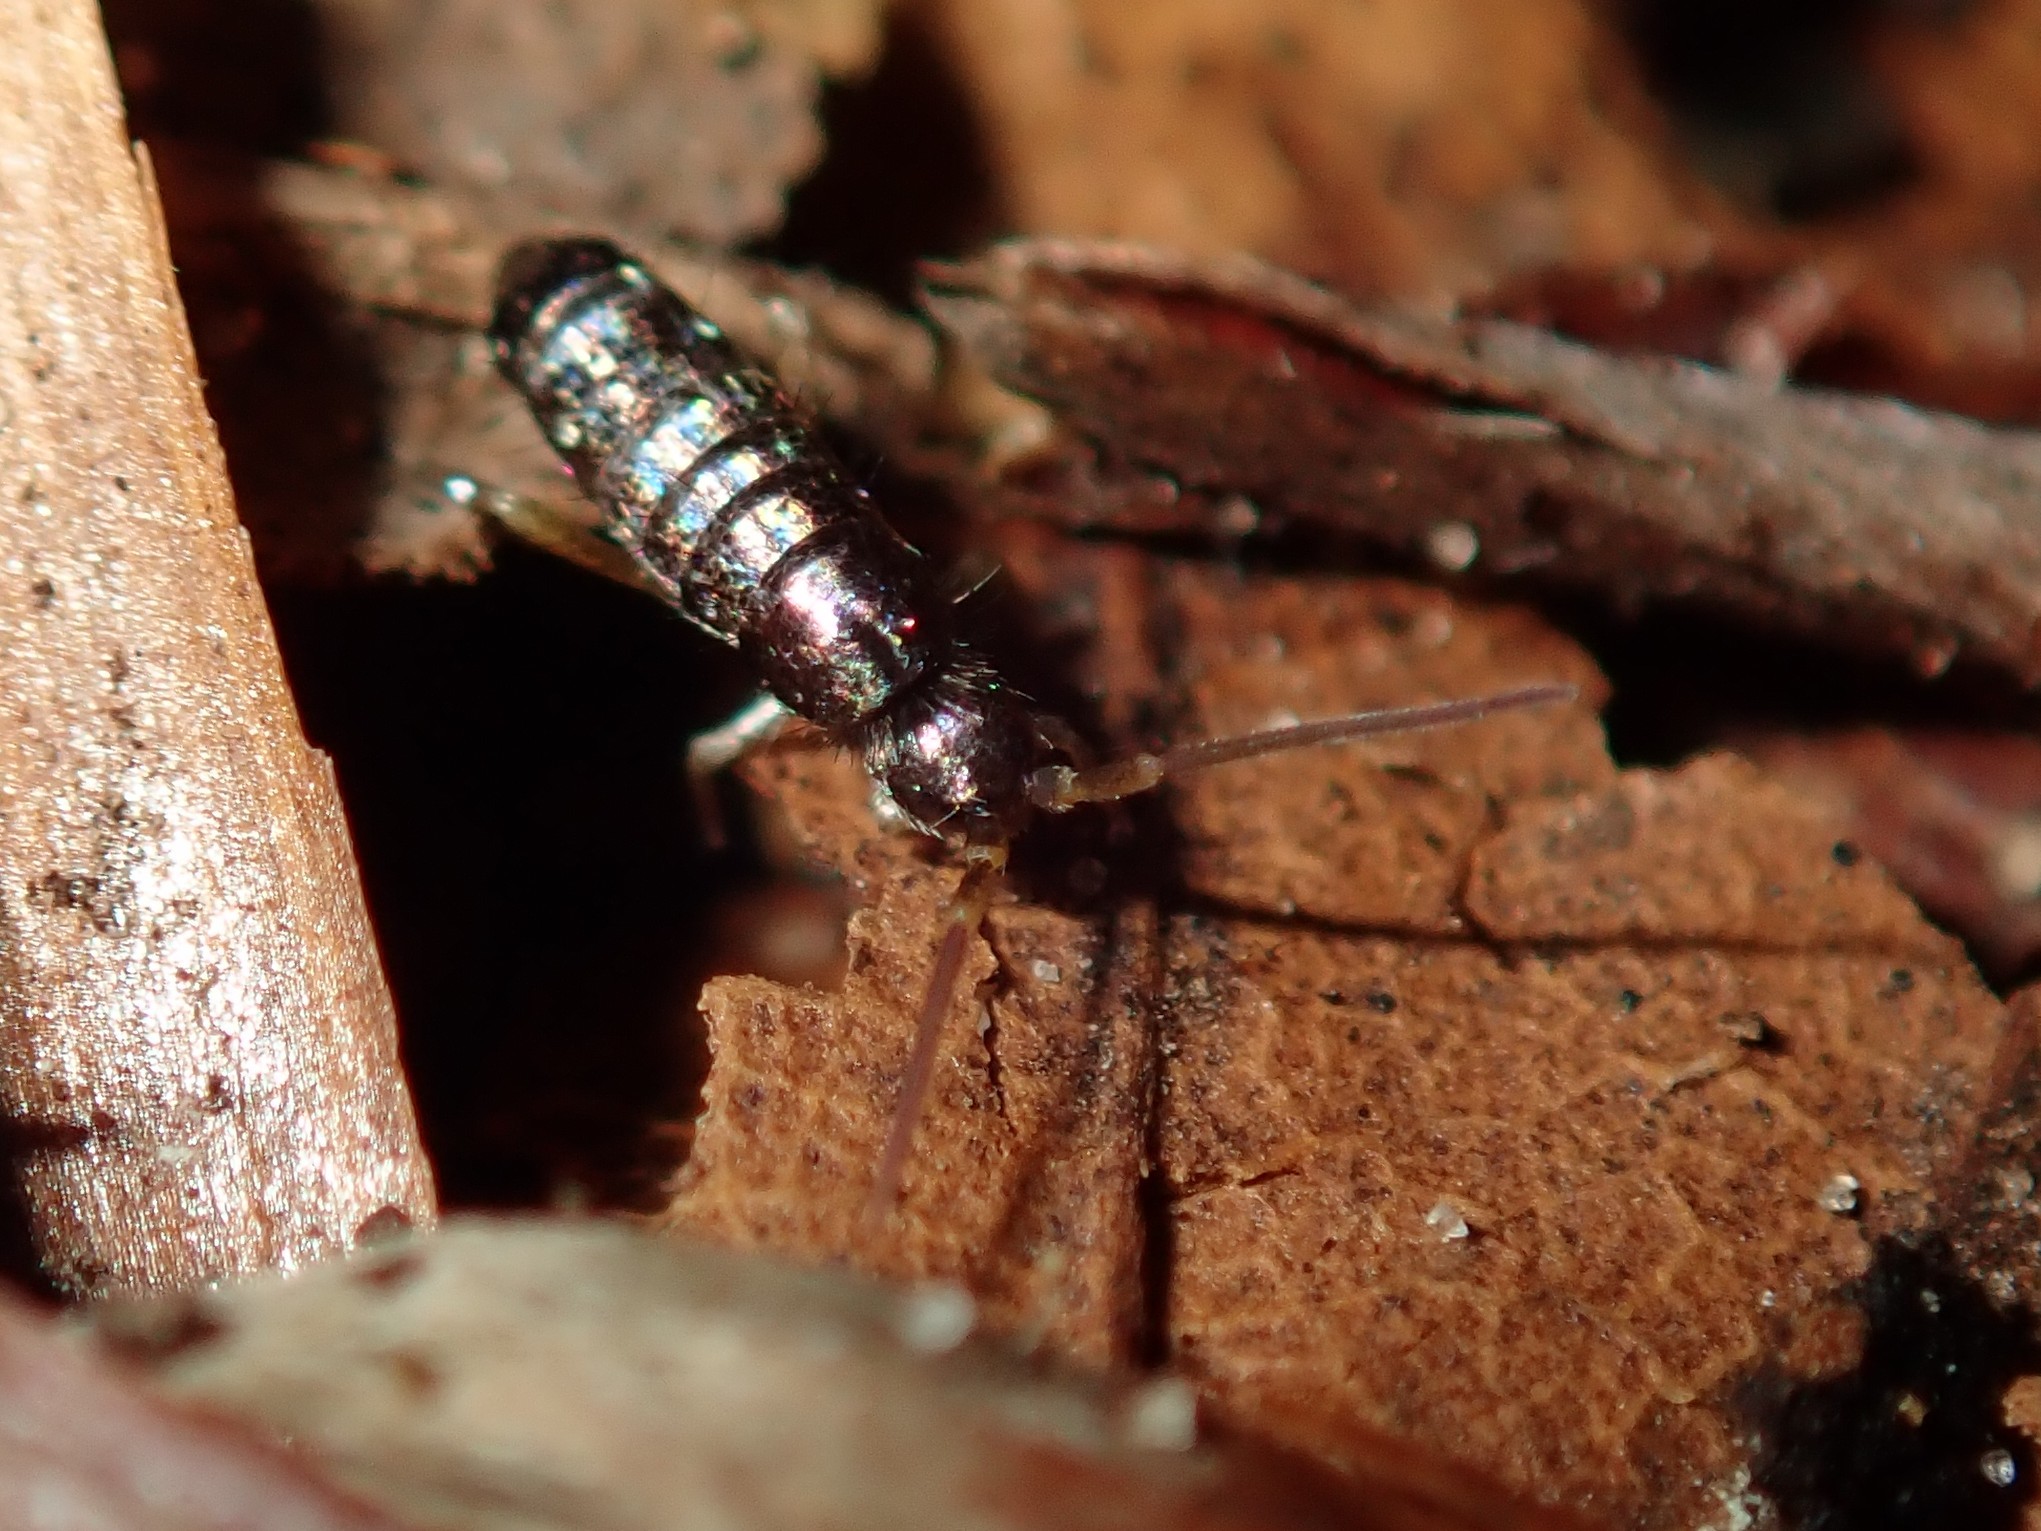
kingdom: Animalia
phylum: Arthropoda
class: Collembola
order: Entomobryomorpha
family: Tomoceridae
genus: Tomocerus
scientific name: Tomocerus vulgaris
